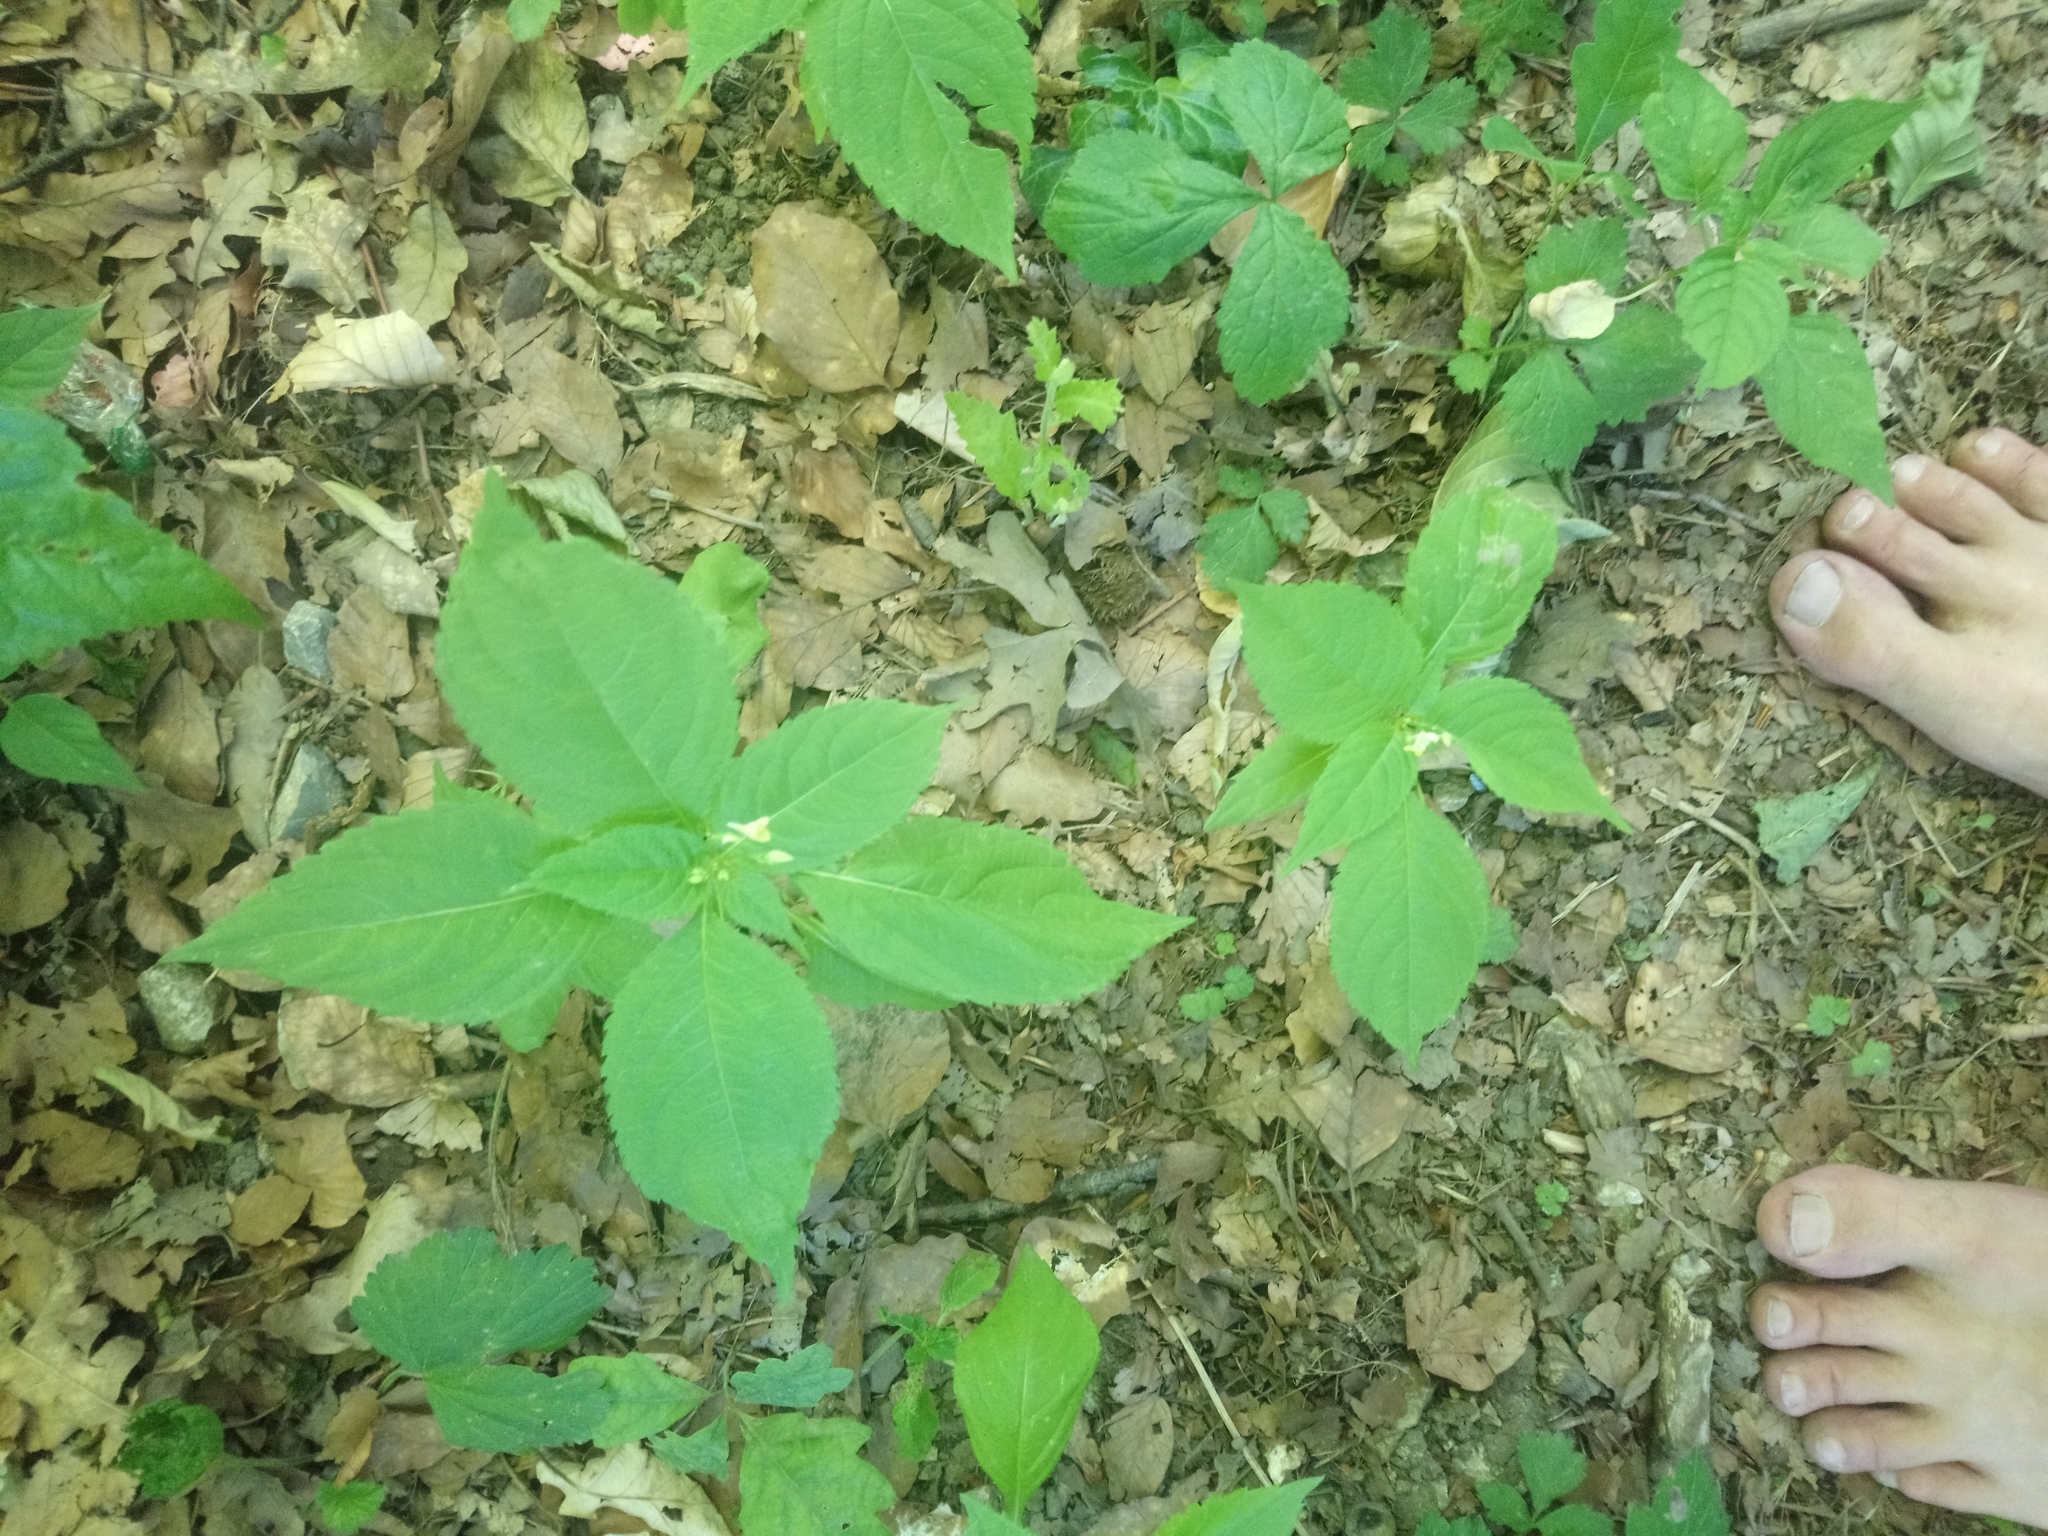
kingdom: Plantae
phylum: Tracheophyta
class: Magnoliopsida
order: Ericales
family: Balsaminaceae
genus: Impatiens
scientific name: Impatiens parviflora
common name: Small balsam
